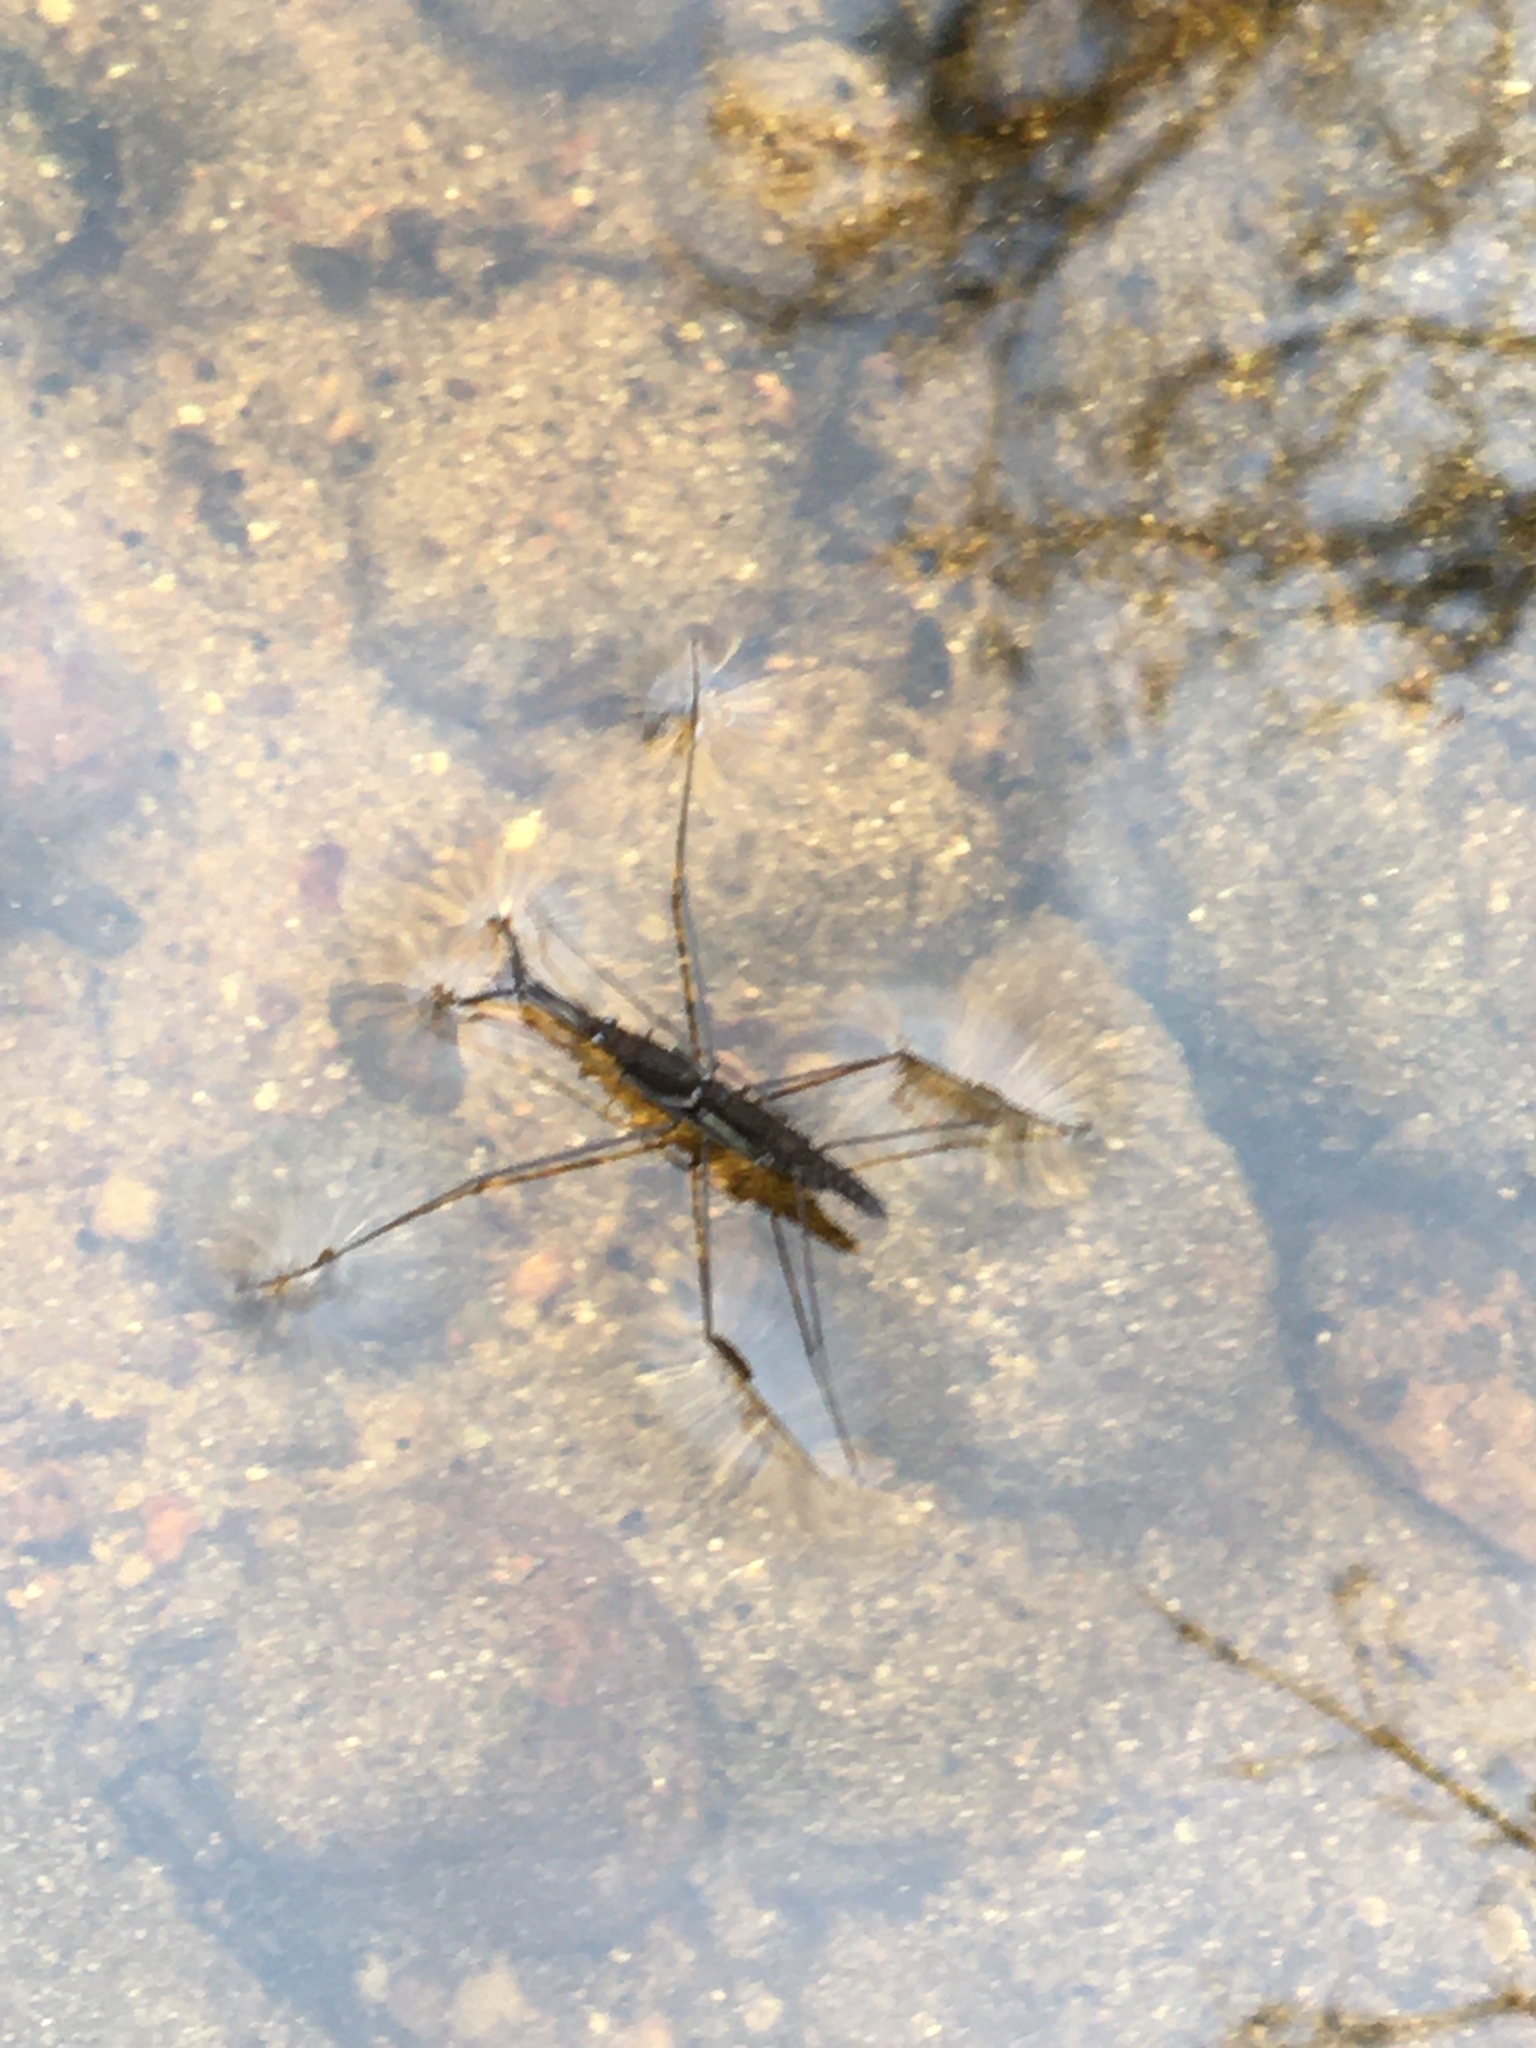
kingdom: Animalia
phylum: Arthropoda
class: Insecta
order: Hemiptera
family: Gerridae
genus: Aquarius
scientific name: Aquarius najas
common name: River skater
